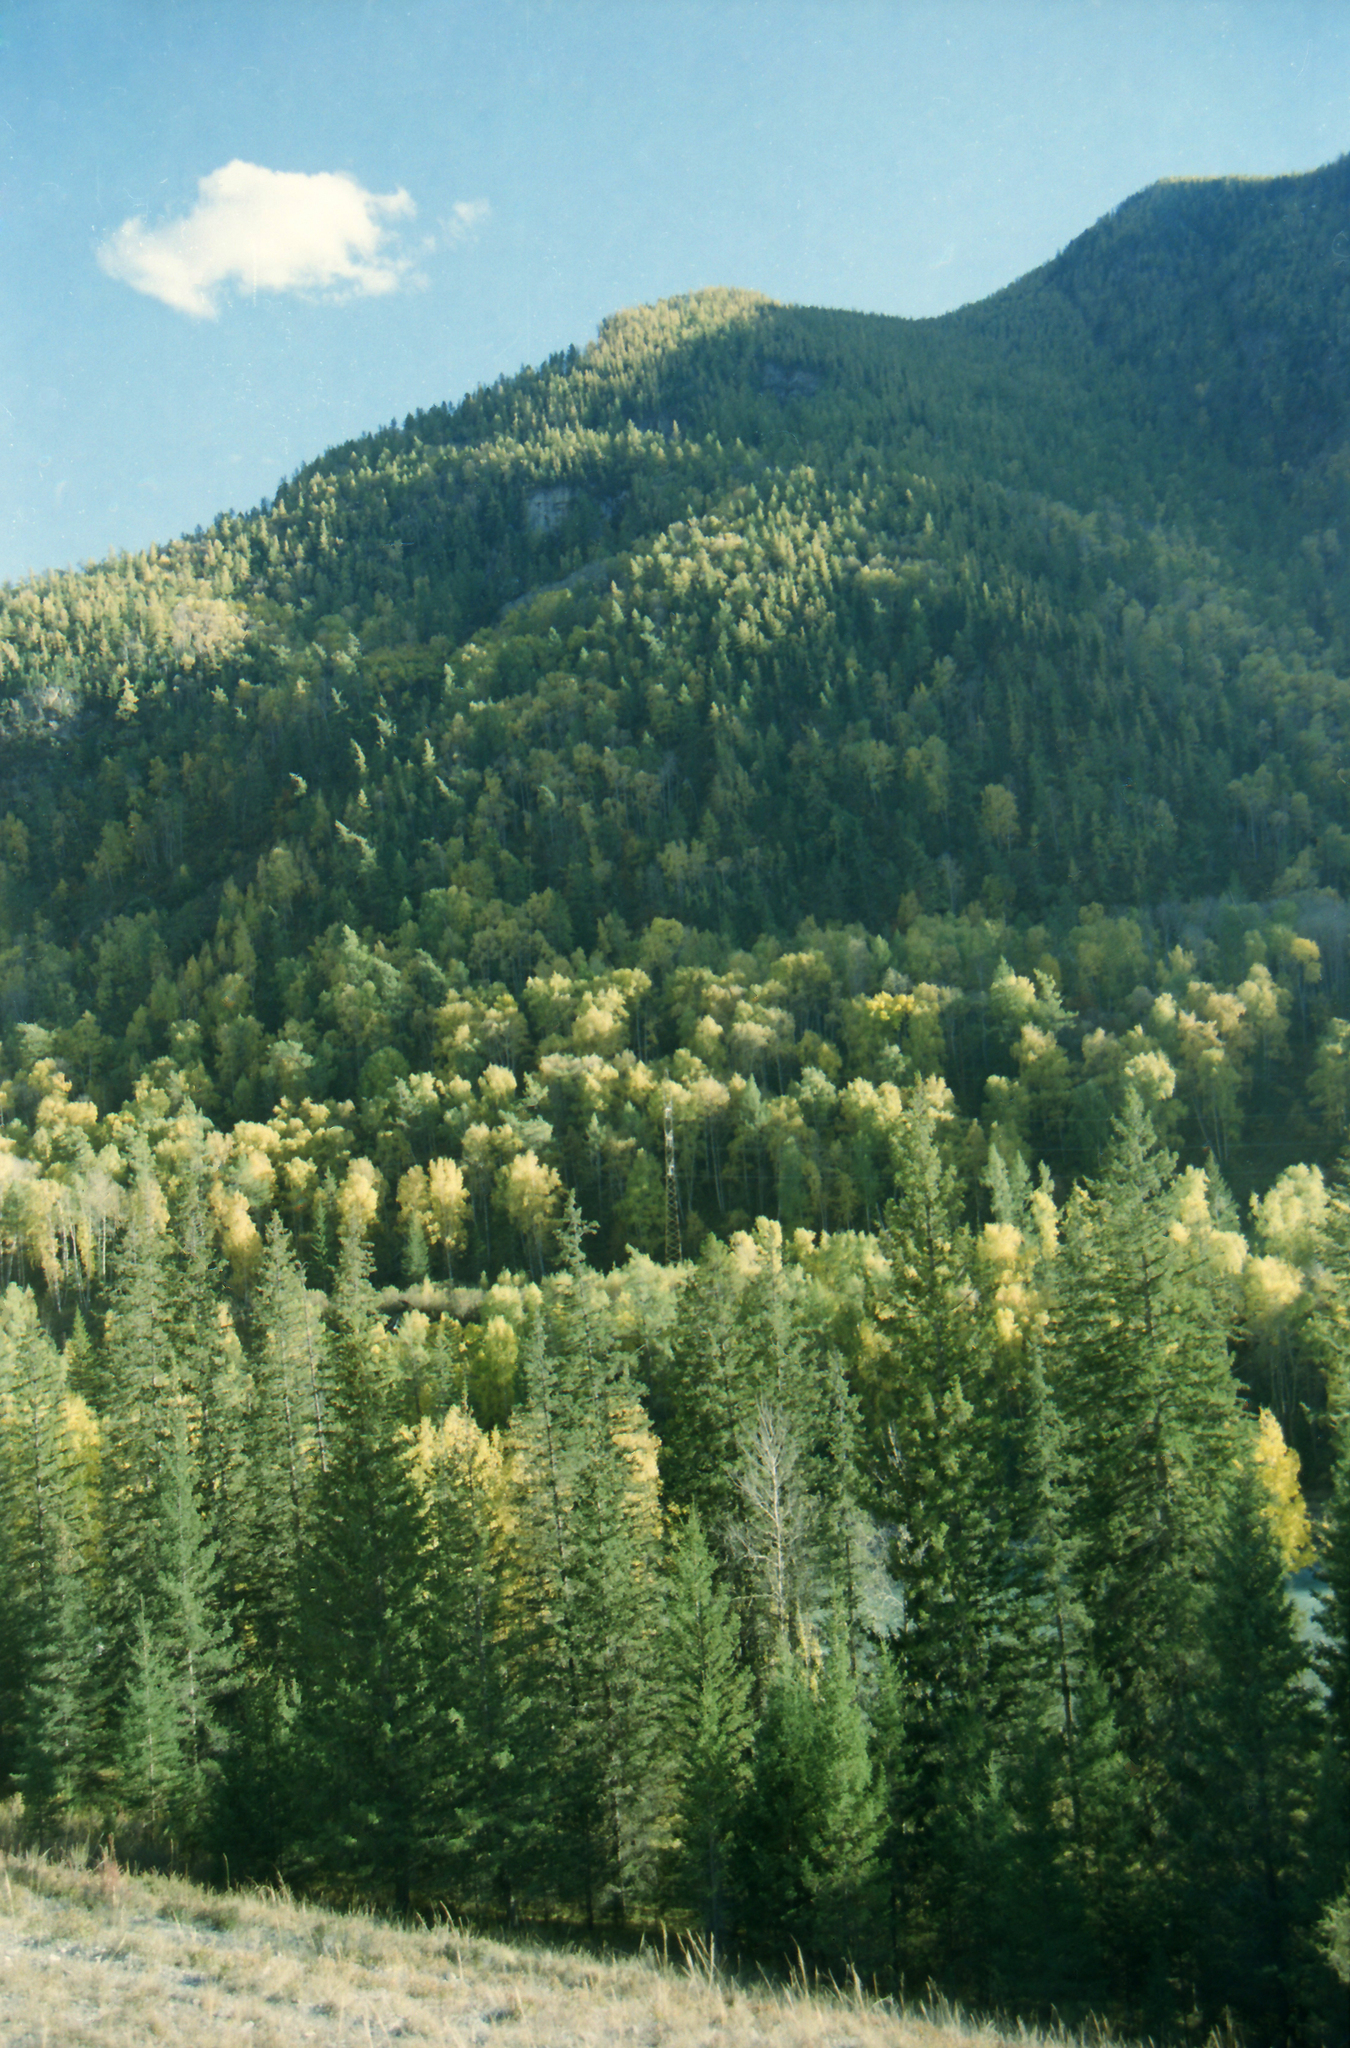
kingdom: Plantae
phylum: Tracheophyta
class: Pinopsida
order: Pinales
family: Pinaceae
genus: Larix
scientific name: Larix sibirica
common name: Siberian larch
